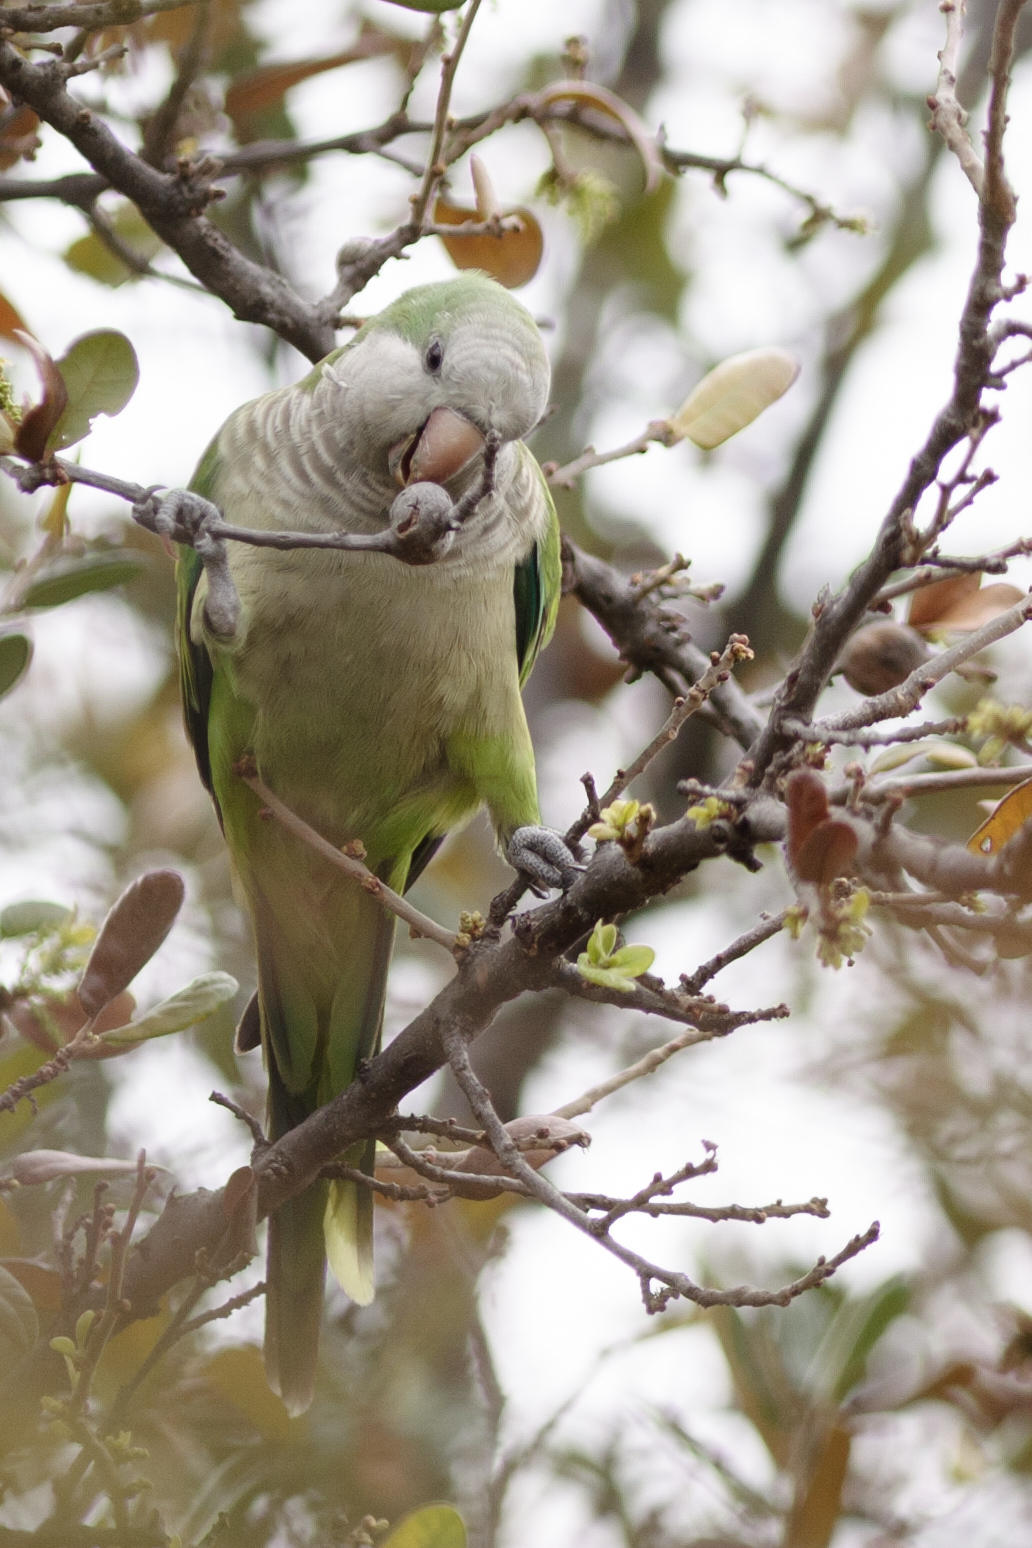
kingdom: Animalia
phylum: Chordata
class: Aves
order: Psittaciformes
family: Psittacidae
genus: Myiopsitta
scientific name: Myiopsitta monachus
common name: Monk parakeet
